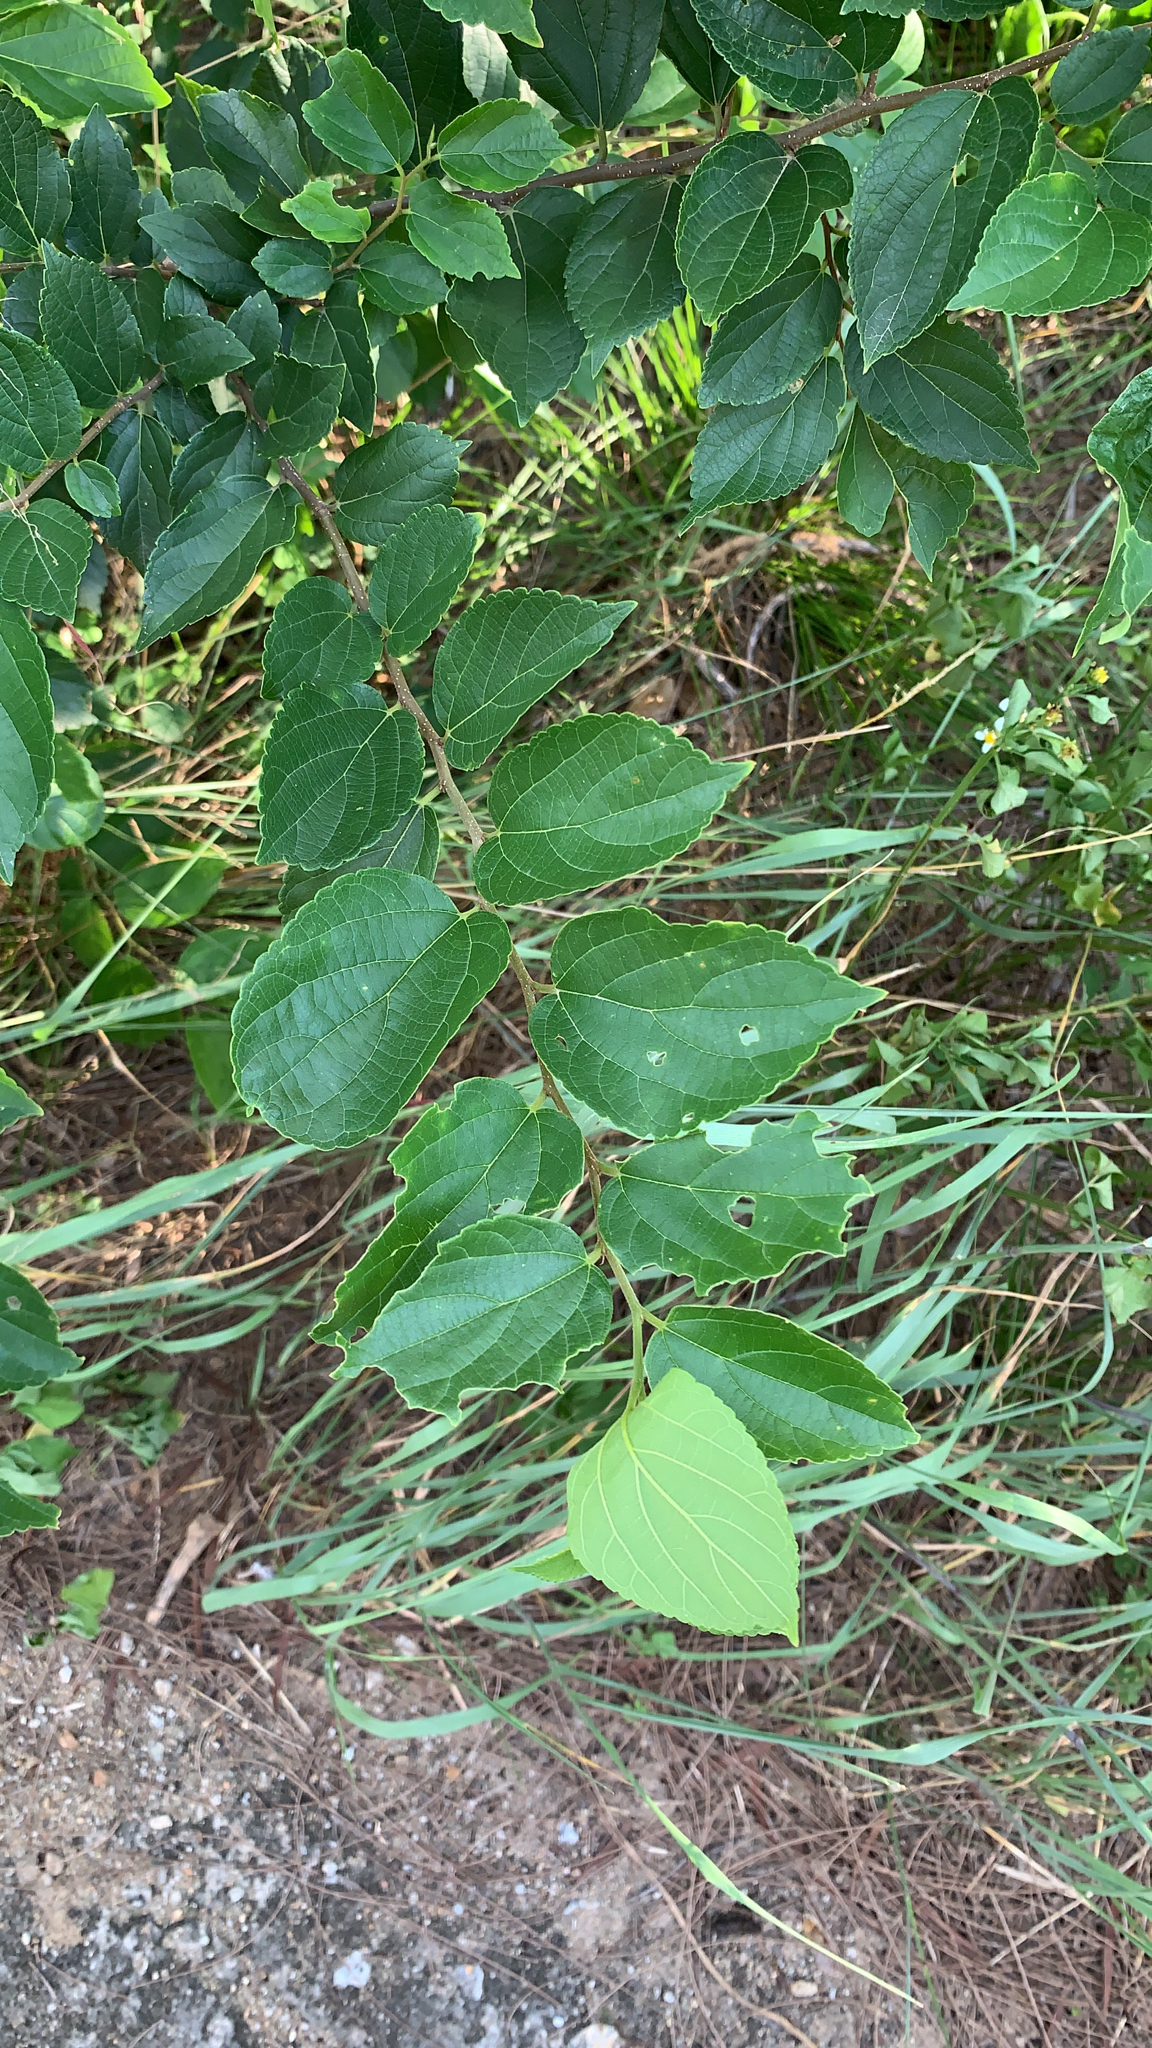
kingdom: Plantae
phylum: Tracheophyta
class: Magnoliopsida
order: Rosales
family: Cannabaceae
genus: Celtis
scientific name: Celtis sinensis
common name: Chinese hackberry
